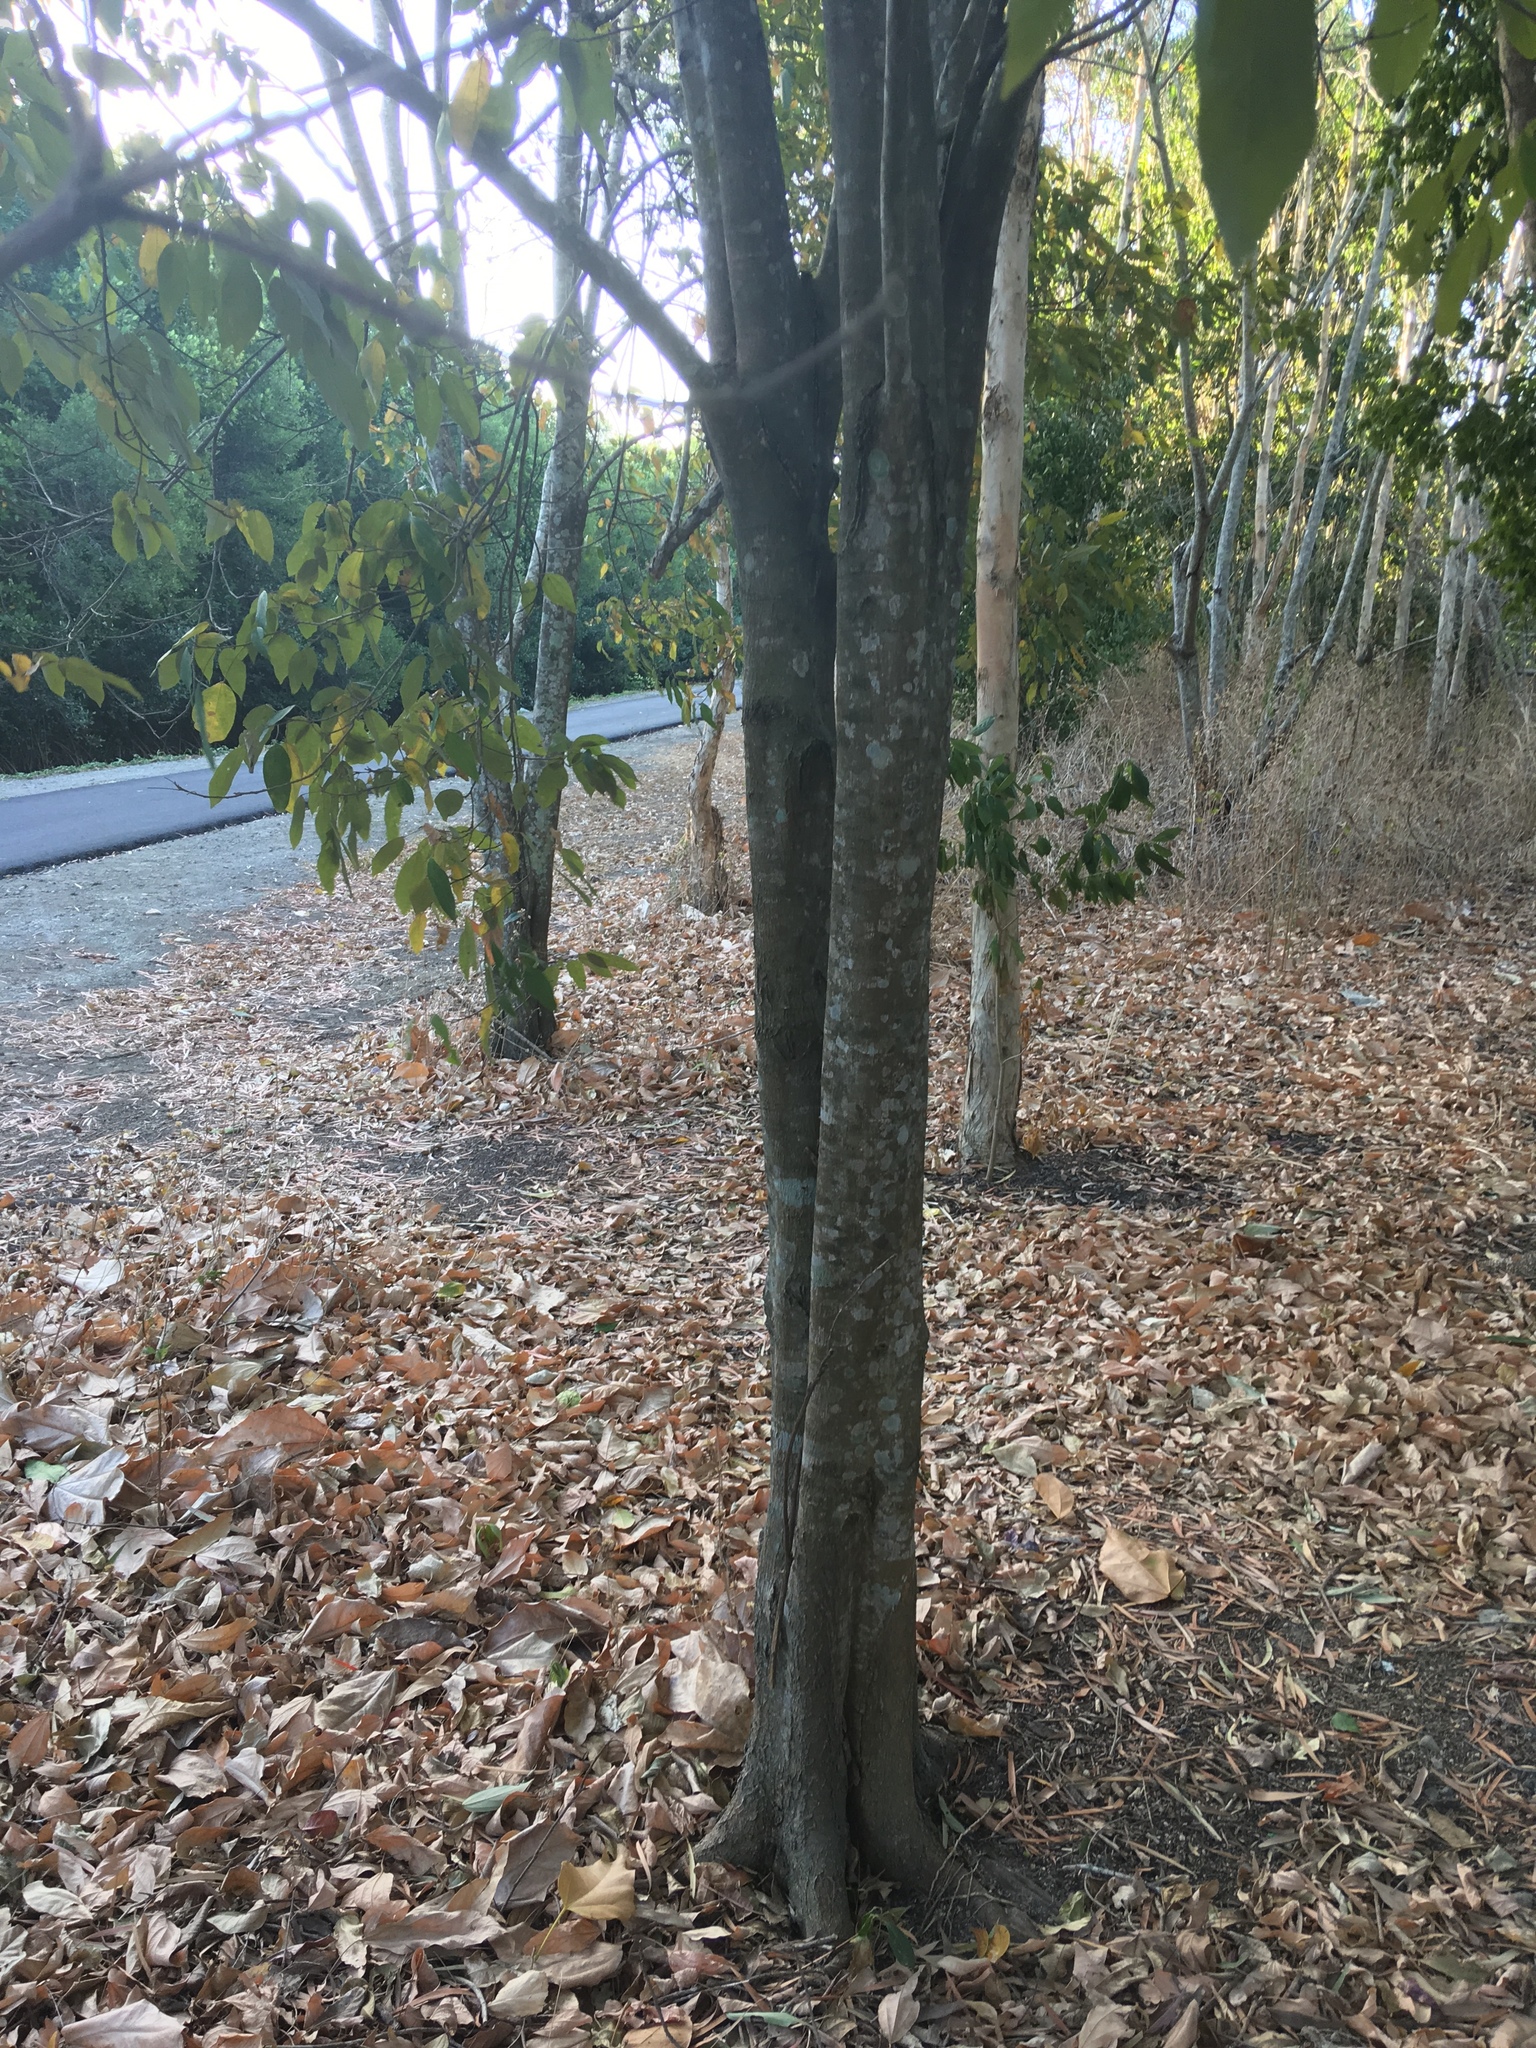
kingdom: Plantae
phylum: Tracheophyta
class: Magnoliopsida
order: Malpighiales
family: Euphorbiaceae
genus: Mallotus
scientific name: Mallotus philippensis
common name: Kamala tree
